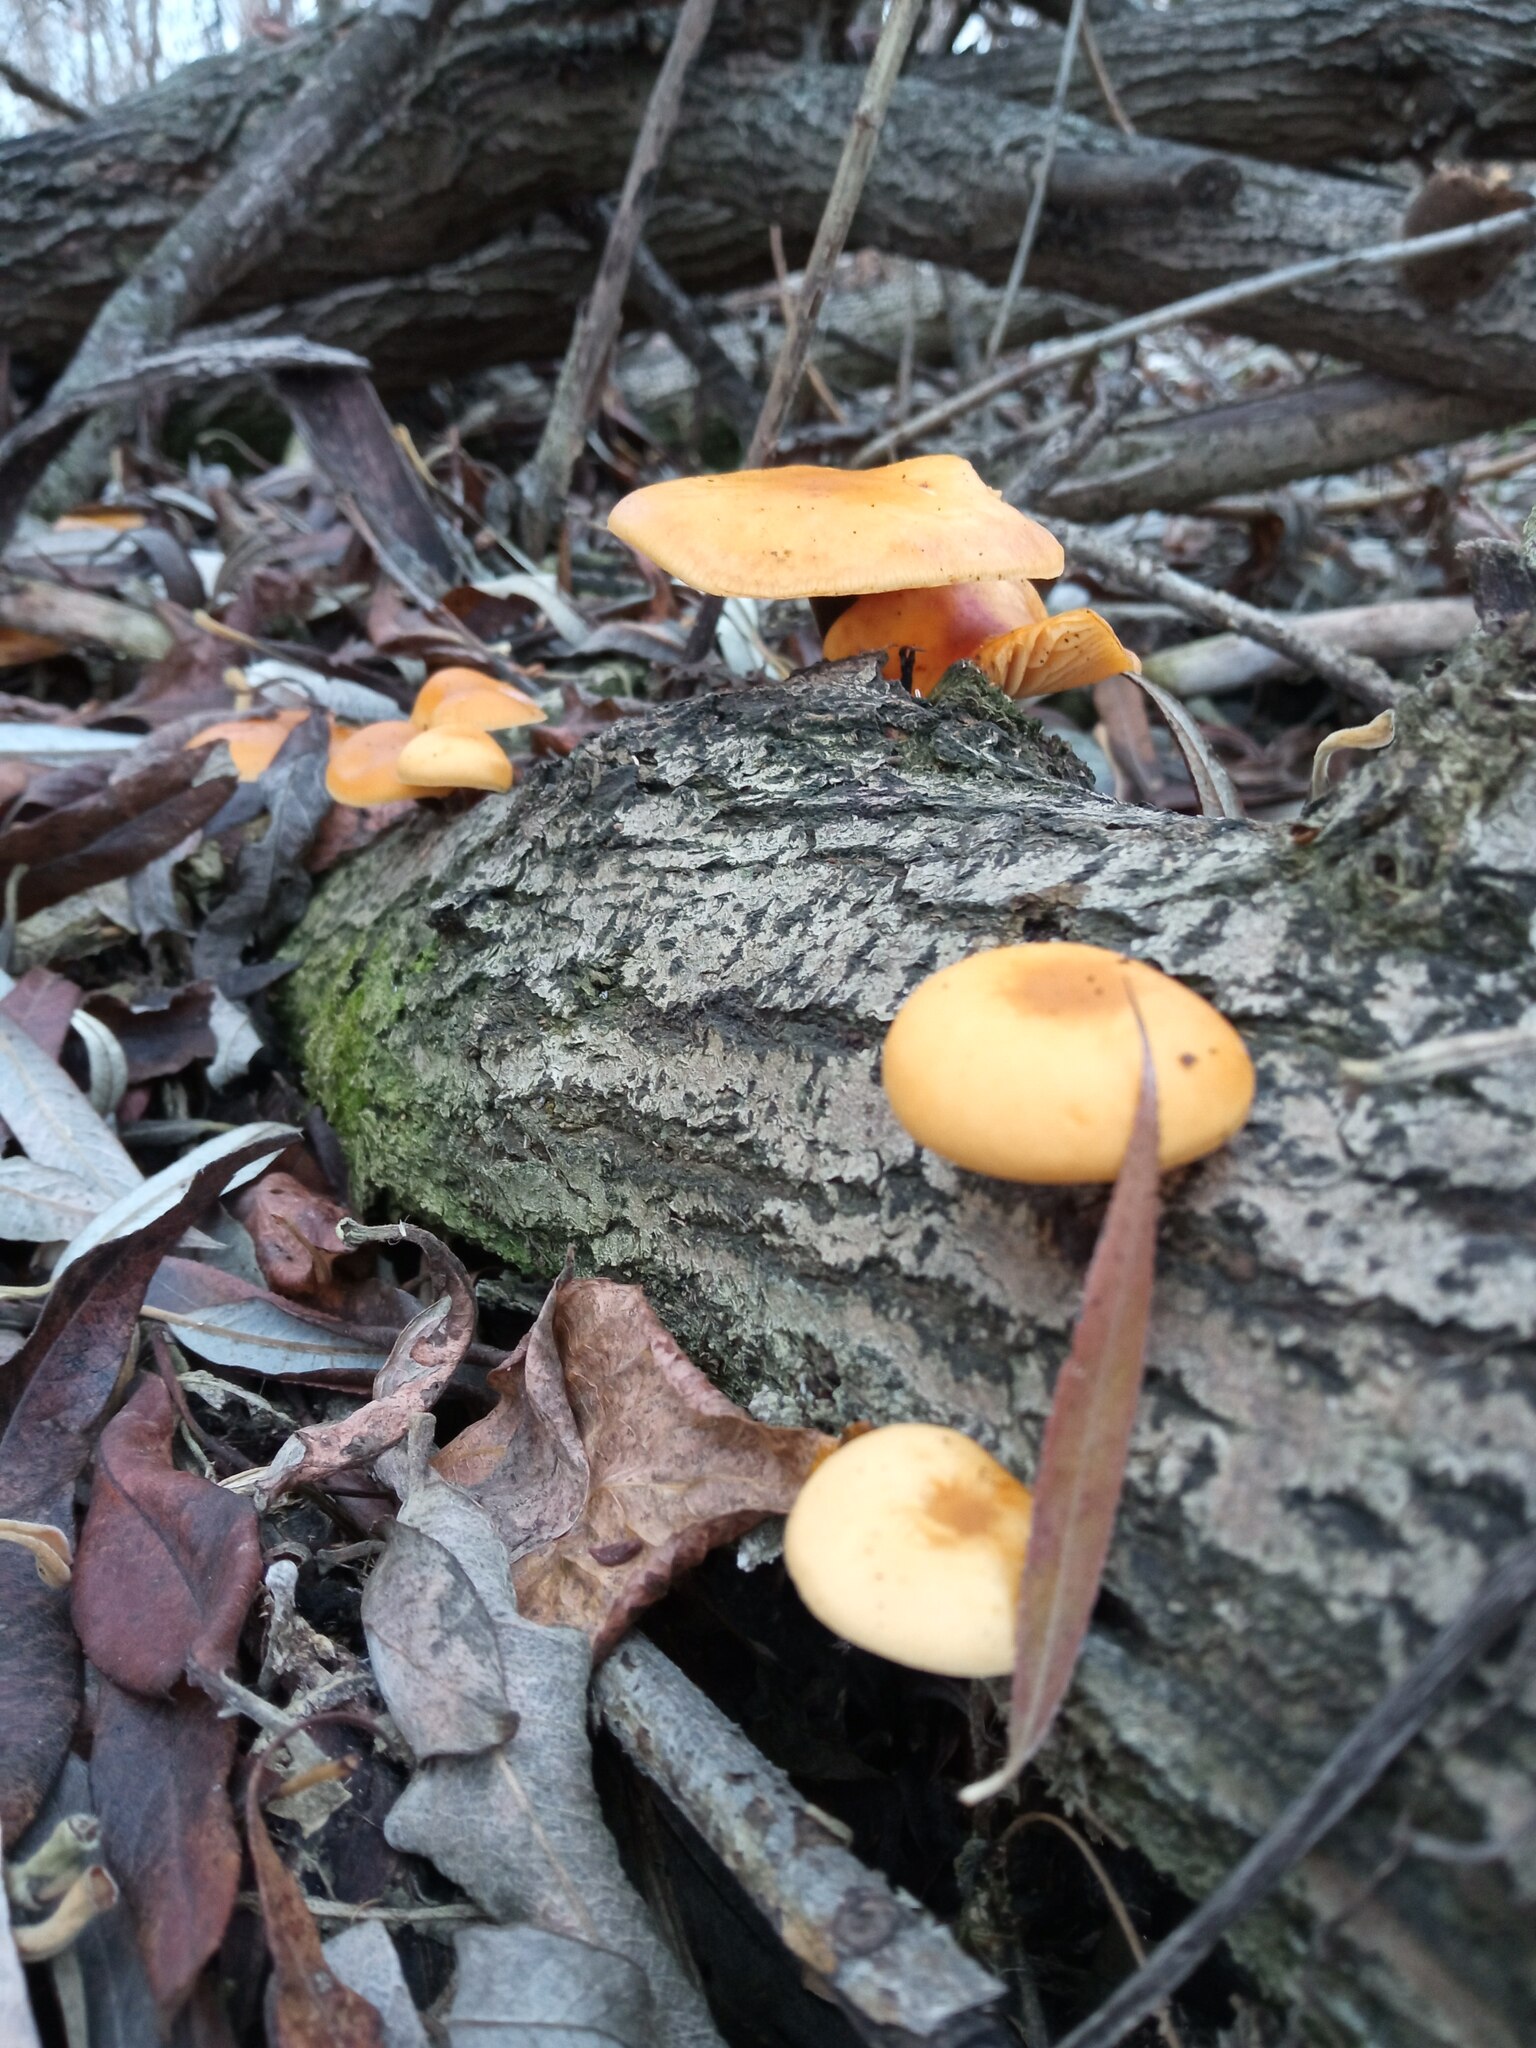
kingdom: Fungi
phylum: Basidiomycota
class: Agaricomycetes
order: Agaricales
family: Physalacriaceae
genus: Flammulina
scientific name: Flammulina
